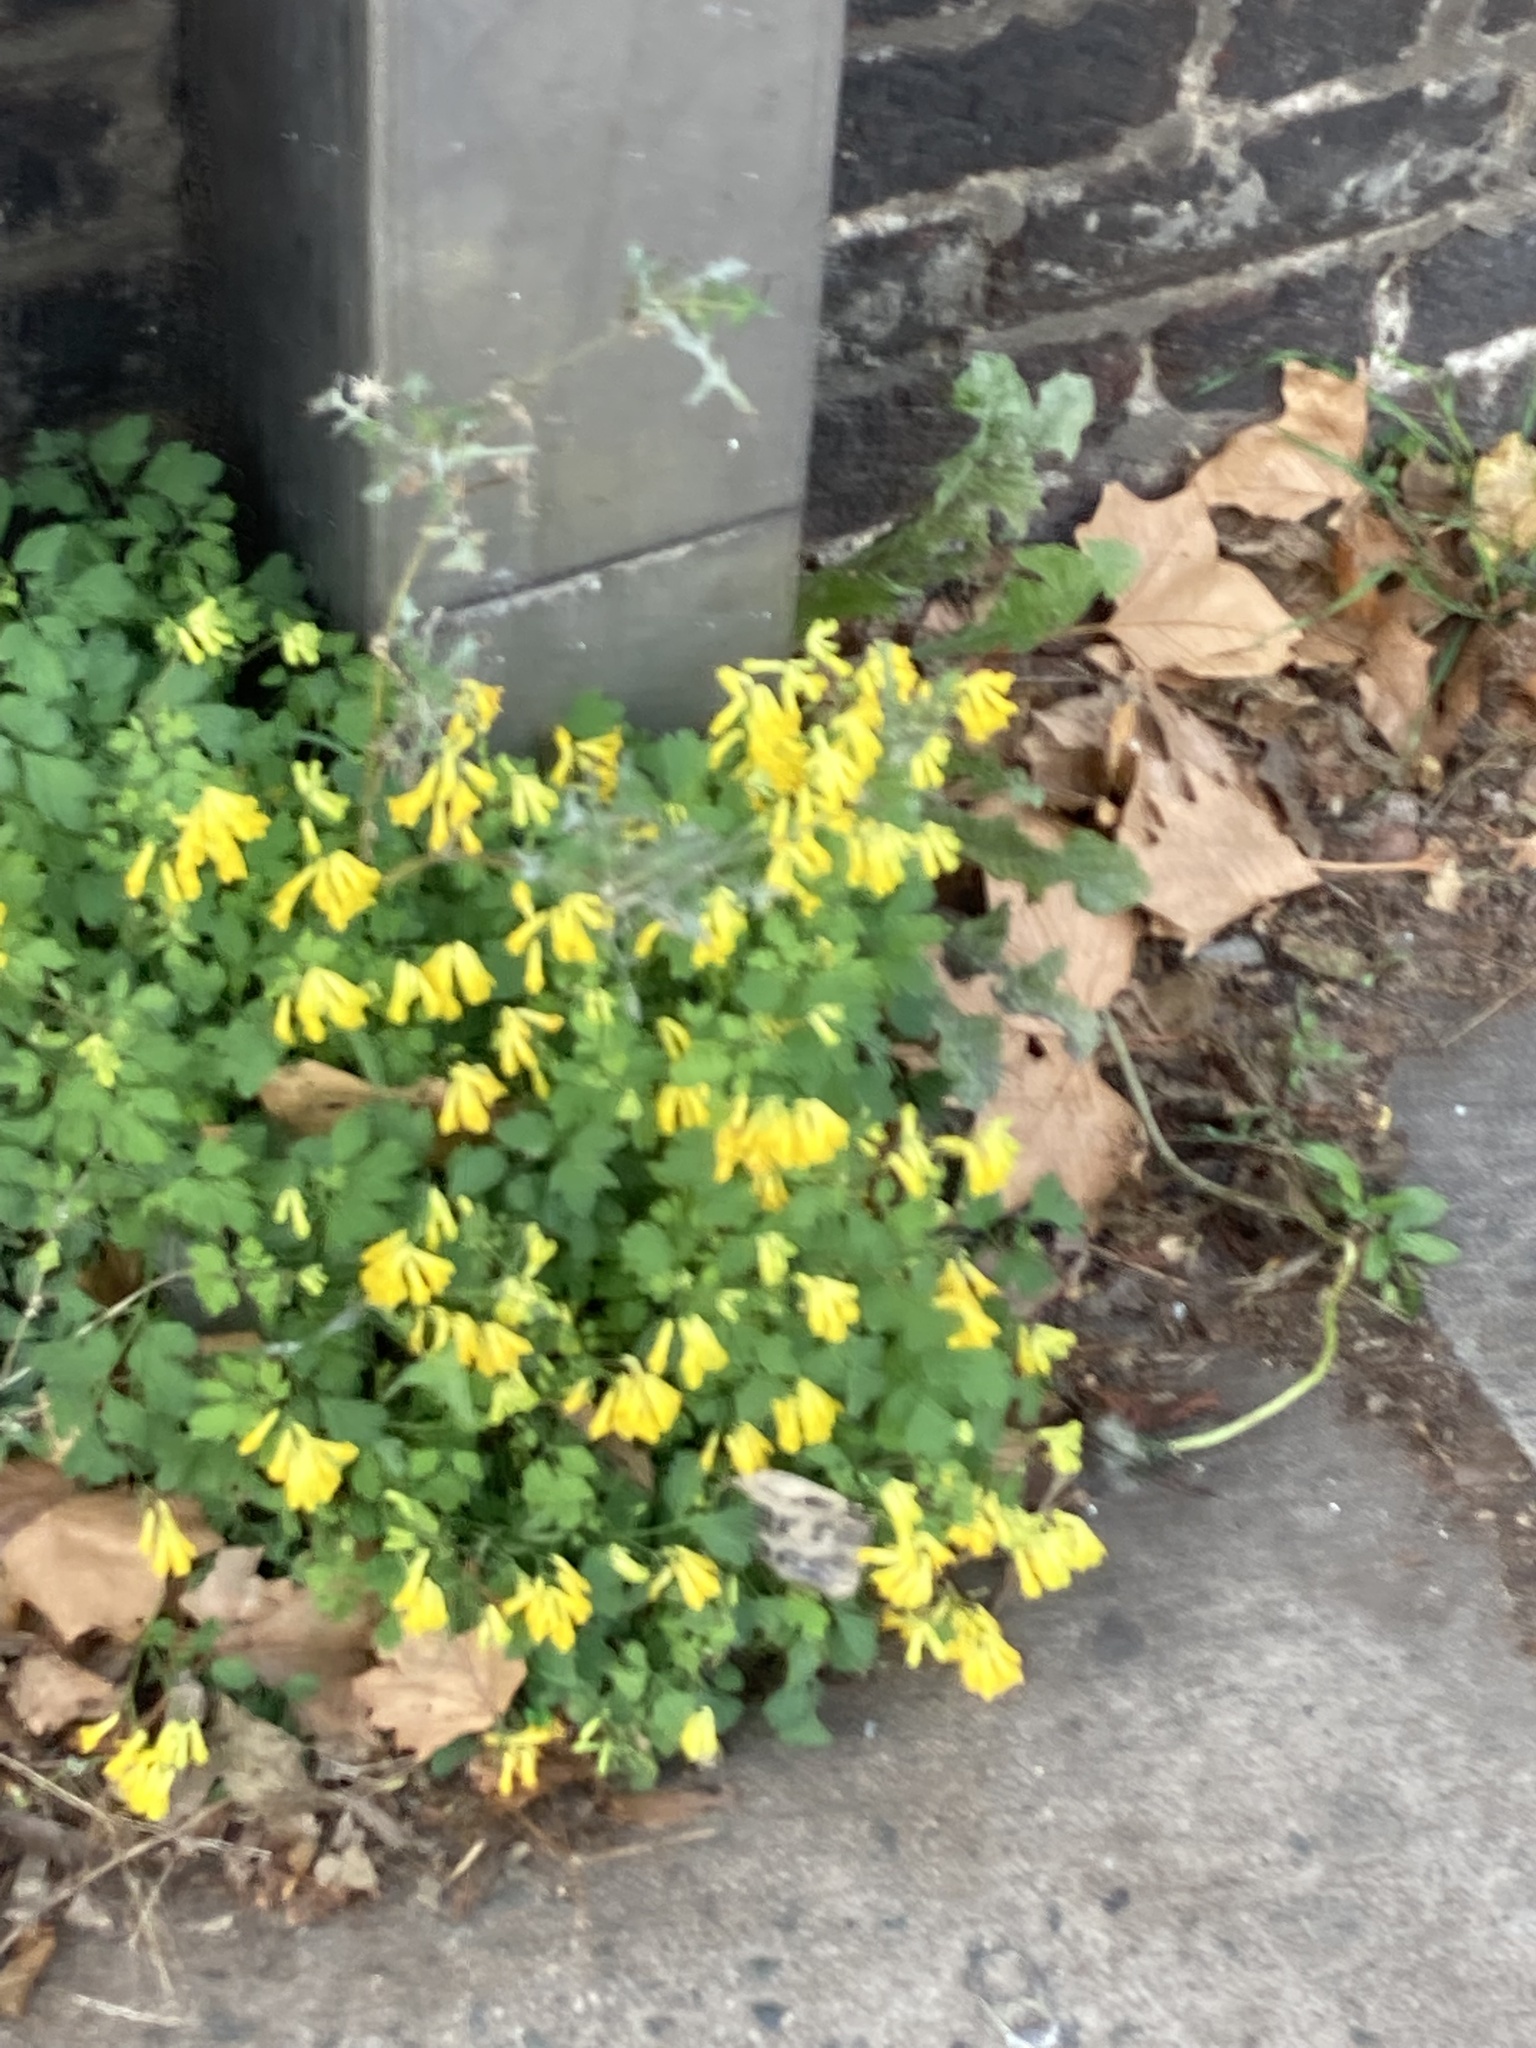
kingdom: Plantae
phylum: Tracheophyta
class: Magnoliopsida
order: Ranunculales
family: Papaveraceae
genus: Pseudofumaria
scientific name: Pseudofumaria lutea
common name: Yellow corydalis
